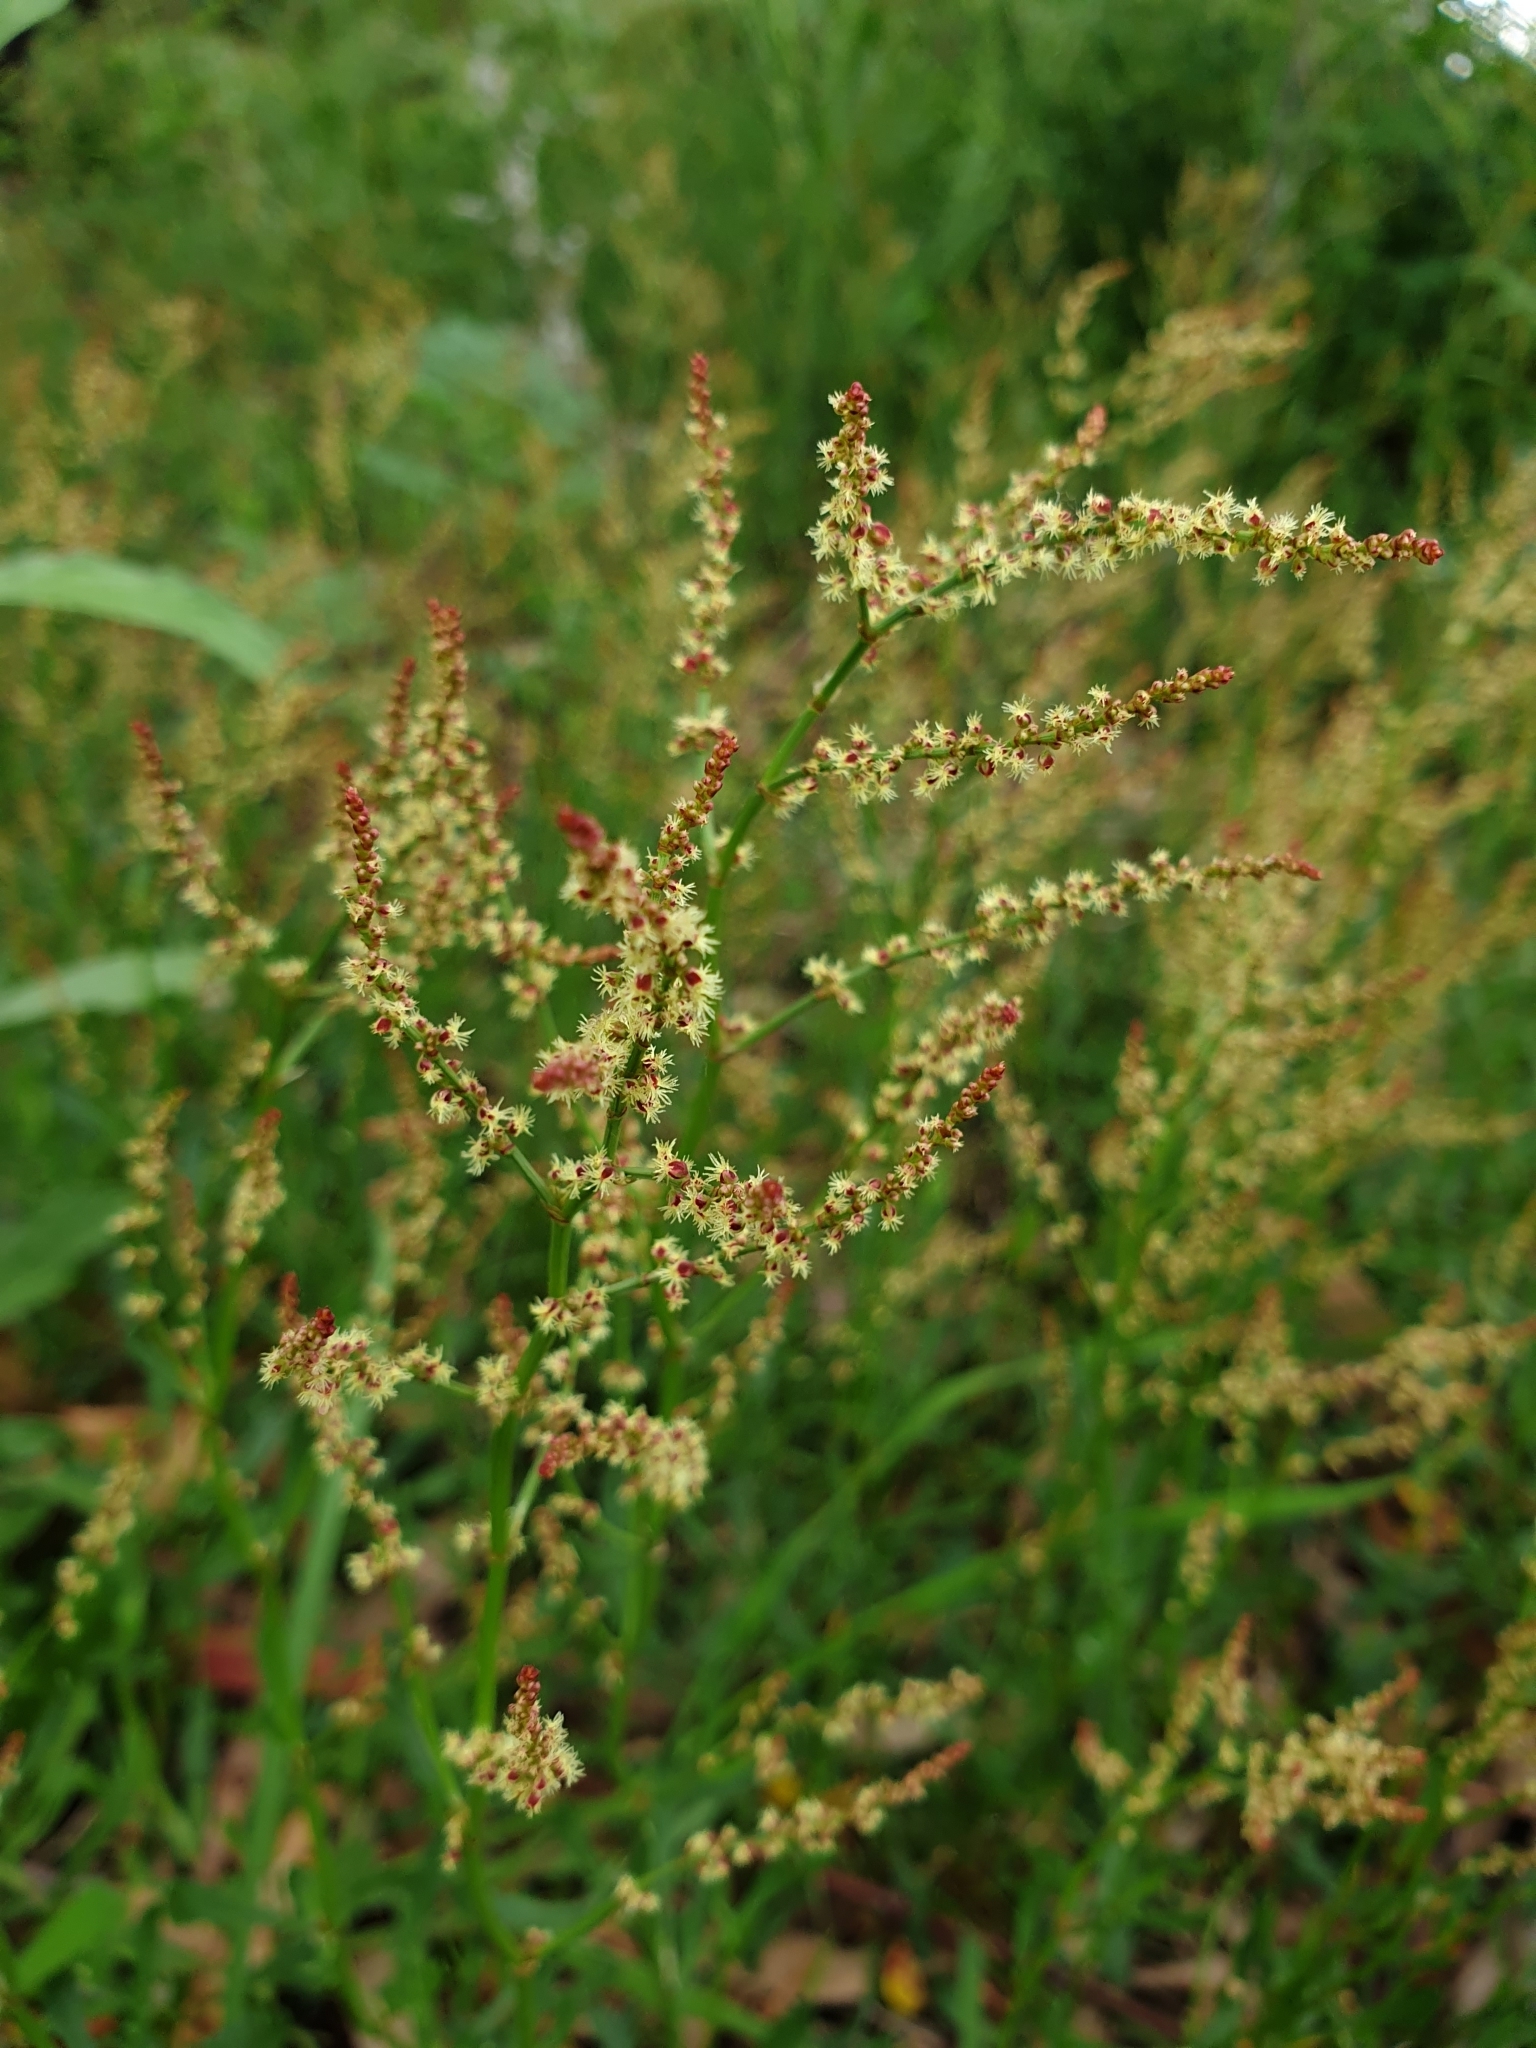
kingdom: Plantae
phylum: Tracheophyta
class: Magnoliopsida
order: Caryophyllales
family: Polygonaceae
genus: Rumex
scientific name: Rumex acetosella
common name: Common sheep sorrel
